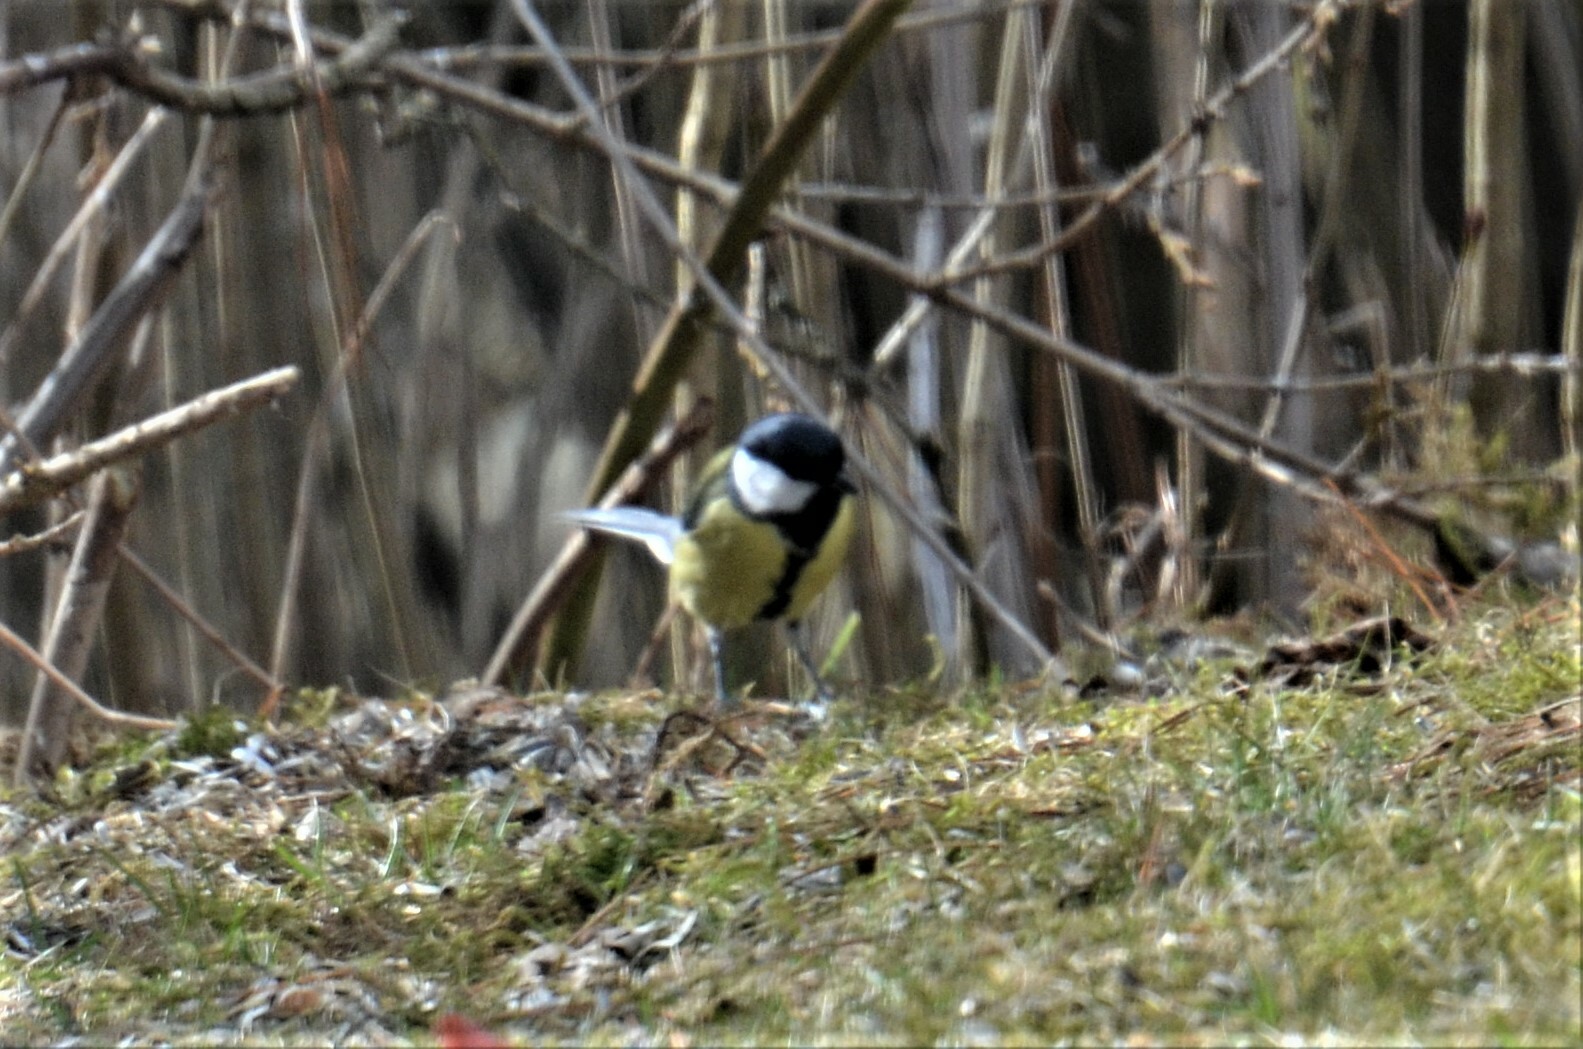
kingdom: Animalia
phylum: Chordata
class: Aves
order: Passeriformes
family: Paridae
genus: Parus
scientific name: Parus major
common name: Great tit
